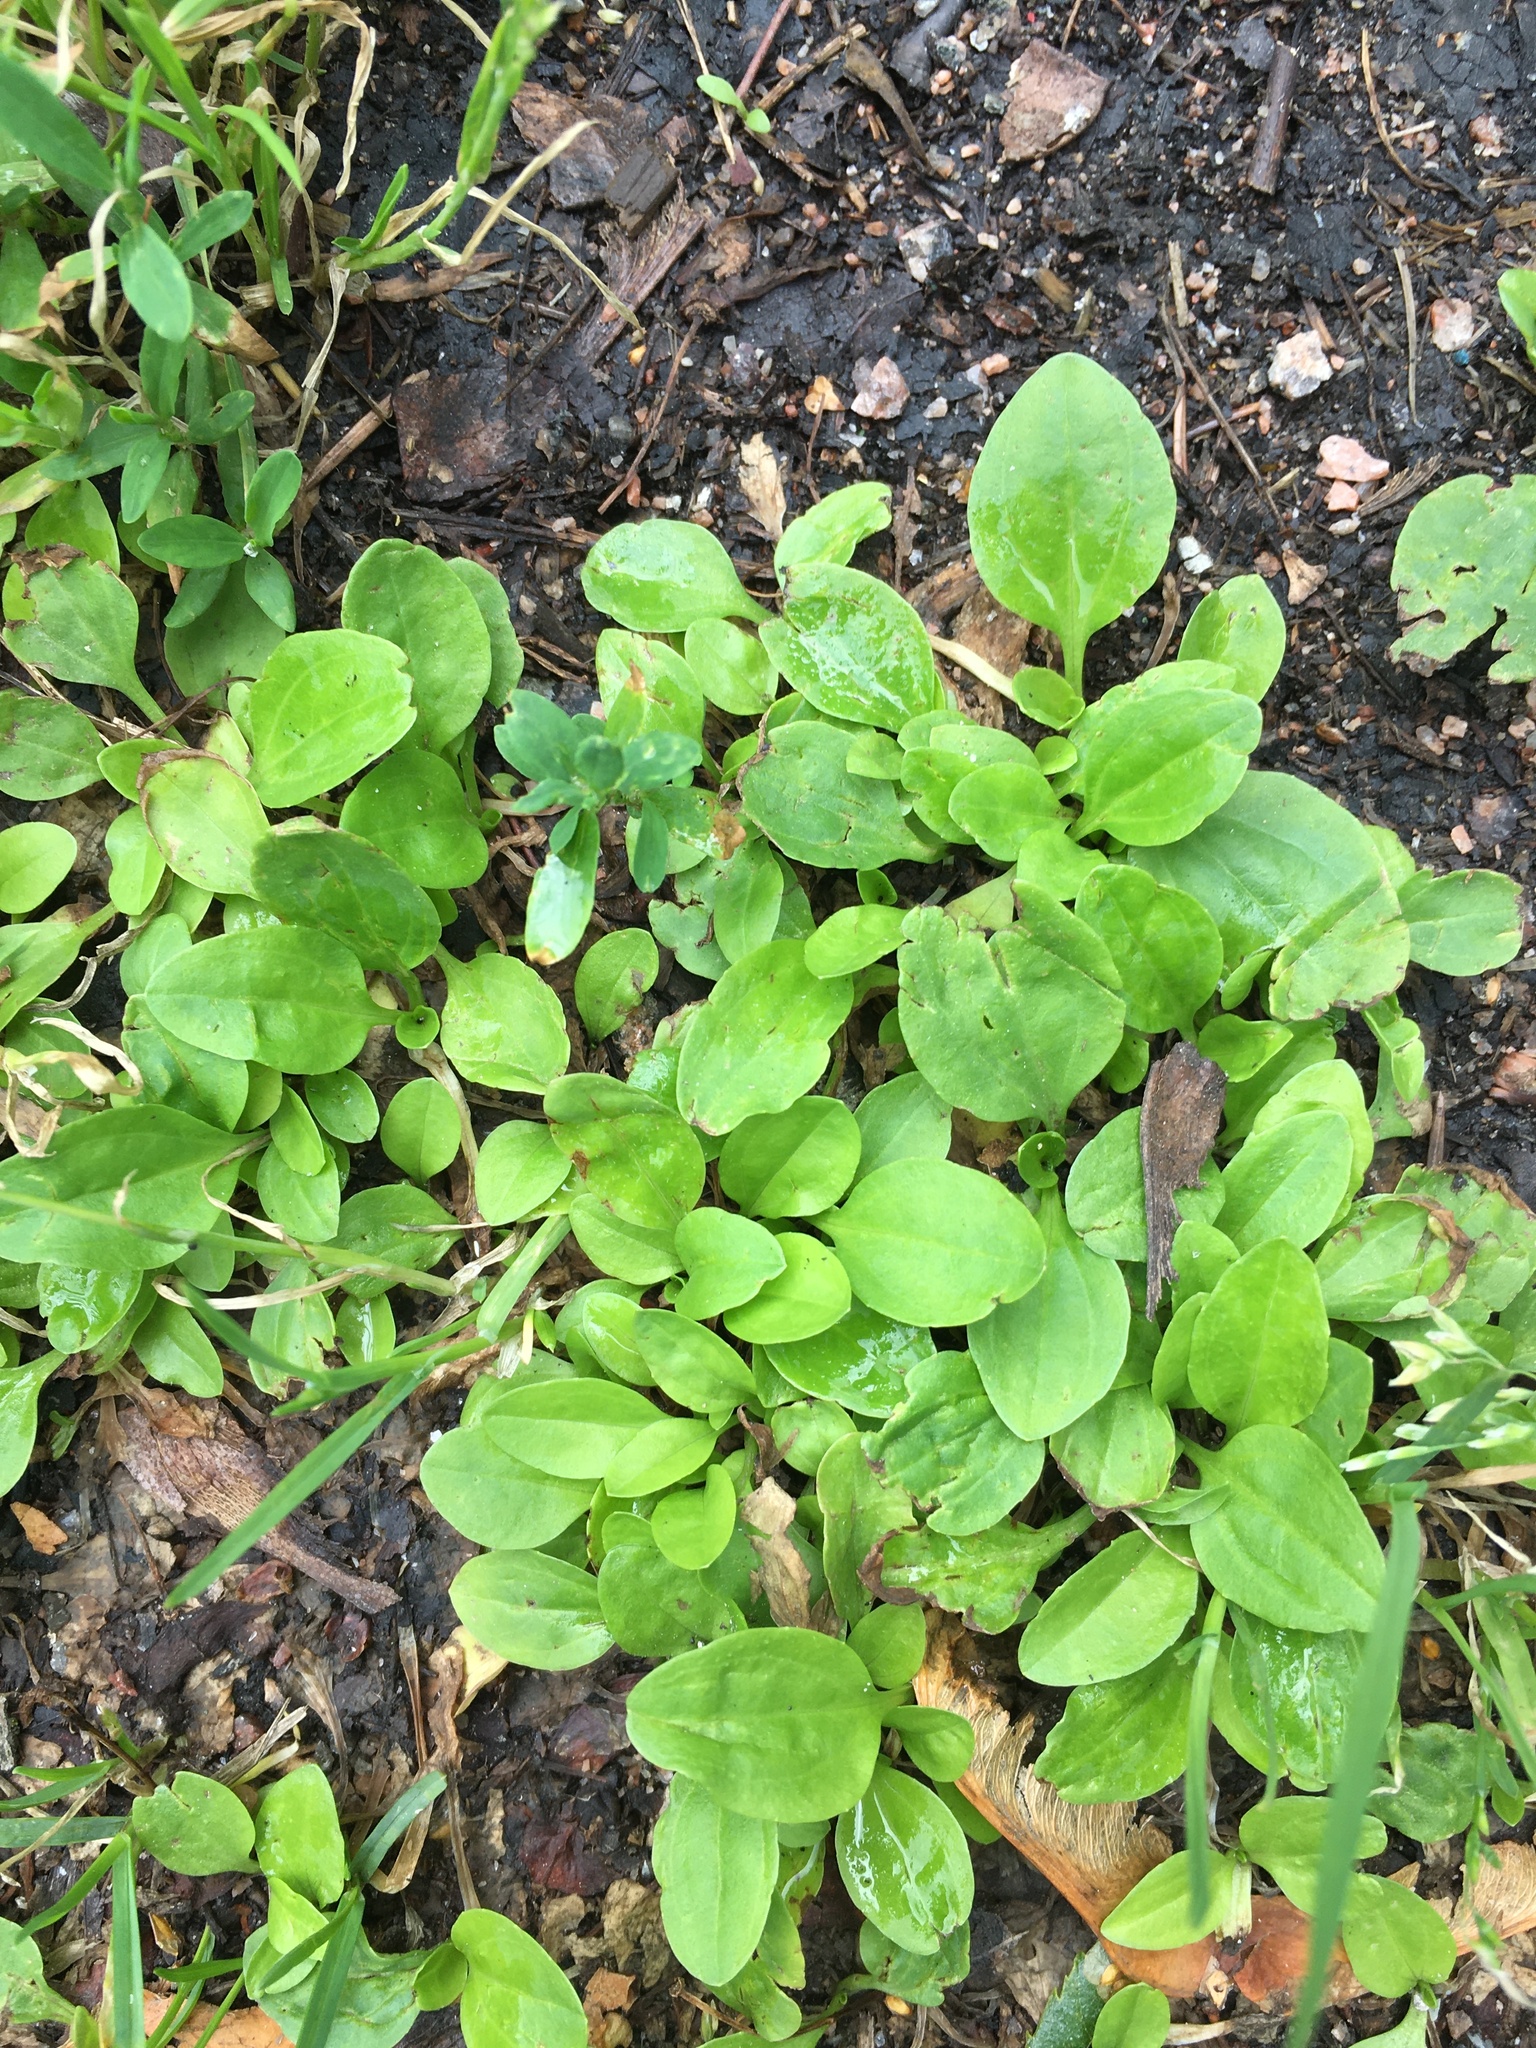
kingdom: Plantae
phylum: Tracheophyta
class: Magnoliopsida
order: Lamiales
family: Plantaginaceae
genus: Plantago
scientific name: Plantago major
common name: Common plantain
